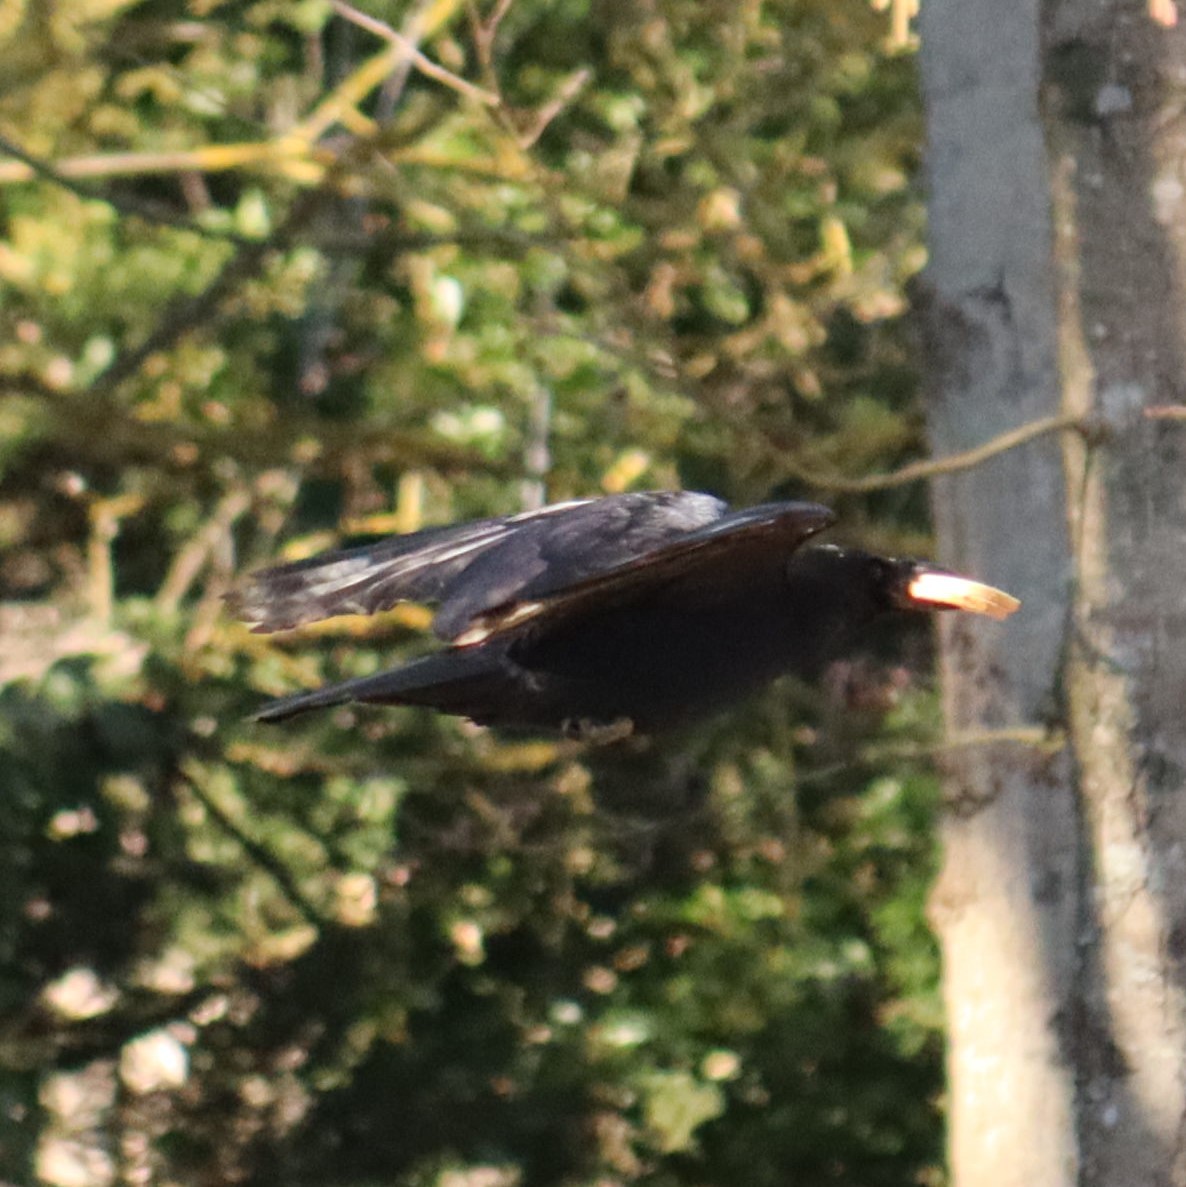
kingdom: Animalia
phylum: Chordata
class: Aves
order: Passeriformes
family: Corvidae
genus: Corvus
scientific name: Corvus corone
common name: Carrion crow
